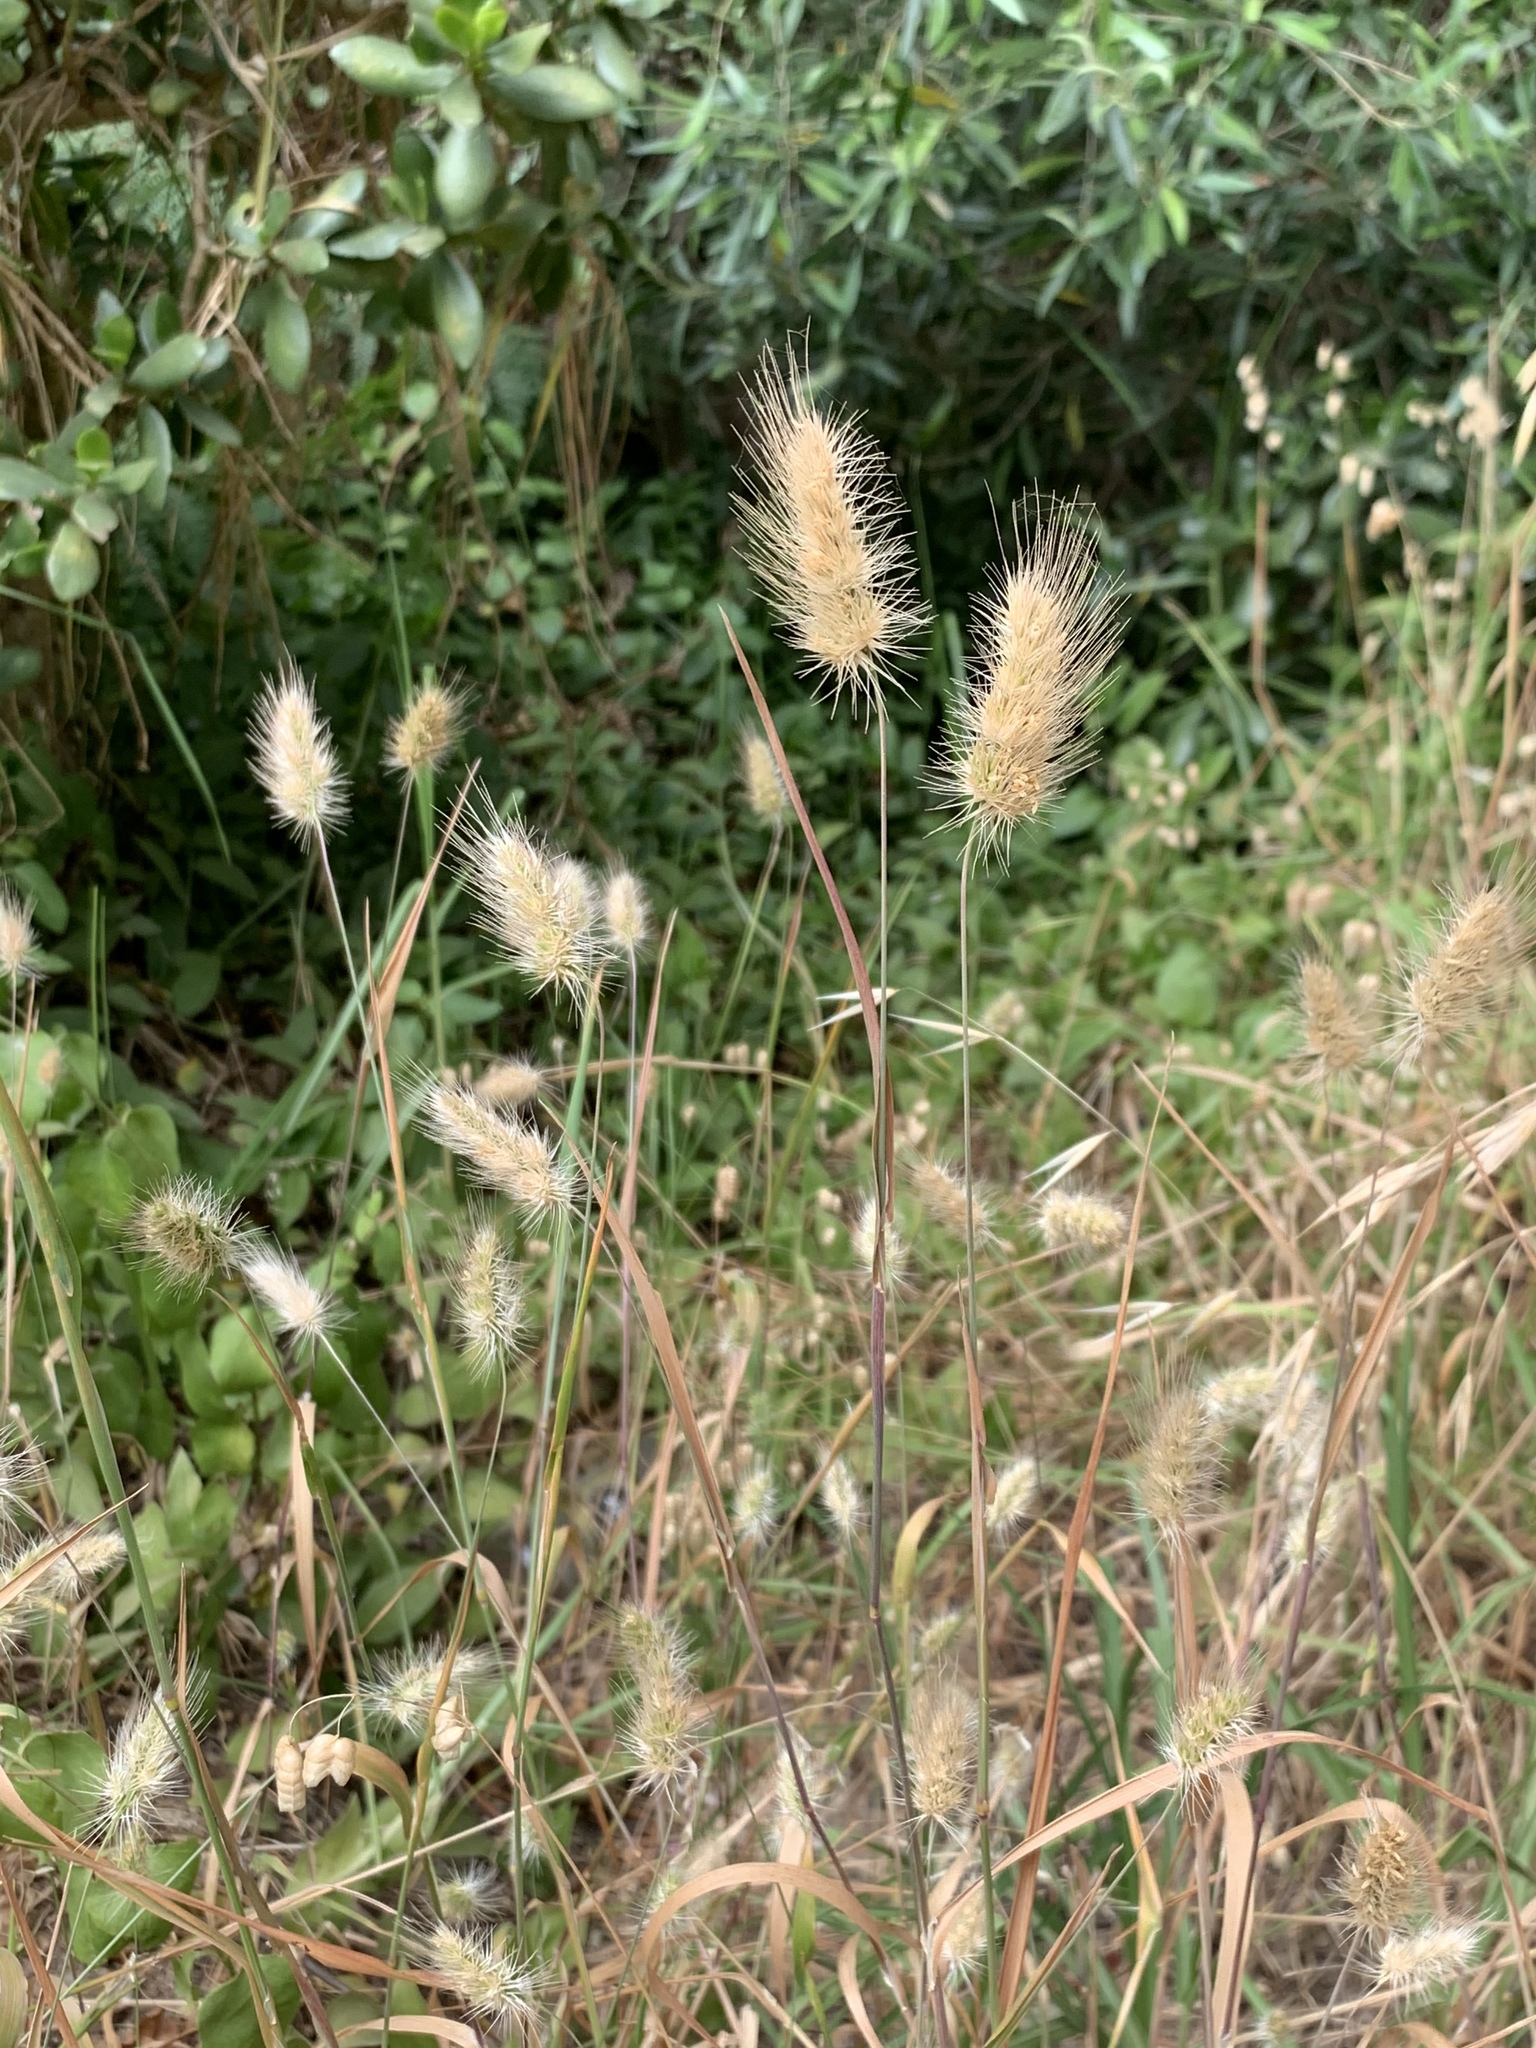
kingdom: Plantae
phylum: Tracheophyta
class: Liliopsida
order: Poales
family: Poaceae
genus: Cynosurus
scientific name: Cynosurus echinatus
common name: Rough dog's-tail
